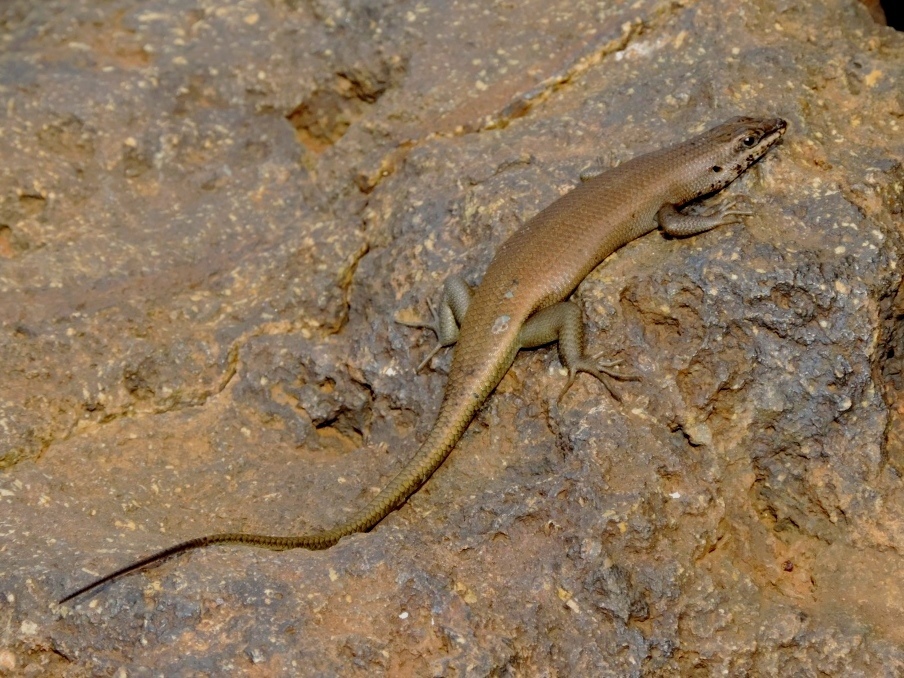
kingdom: Animalia
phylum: Chordata
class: Squamata
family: Scincidae
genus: Trachylepis
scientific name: Trachylepis sulcata
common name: Western rock skink
